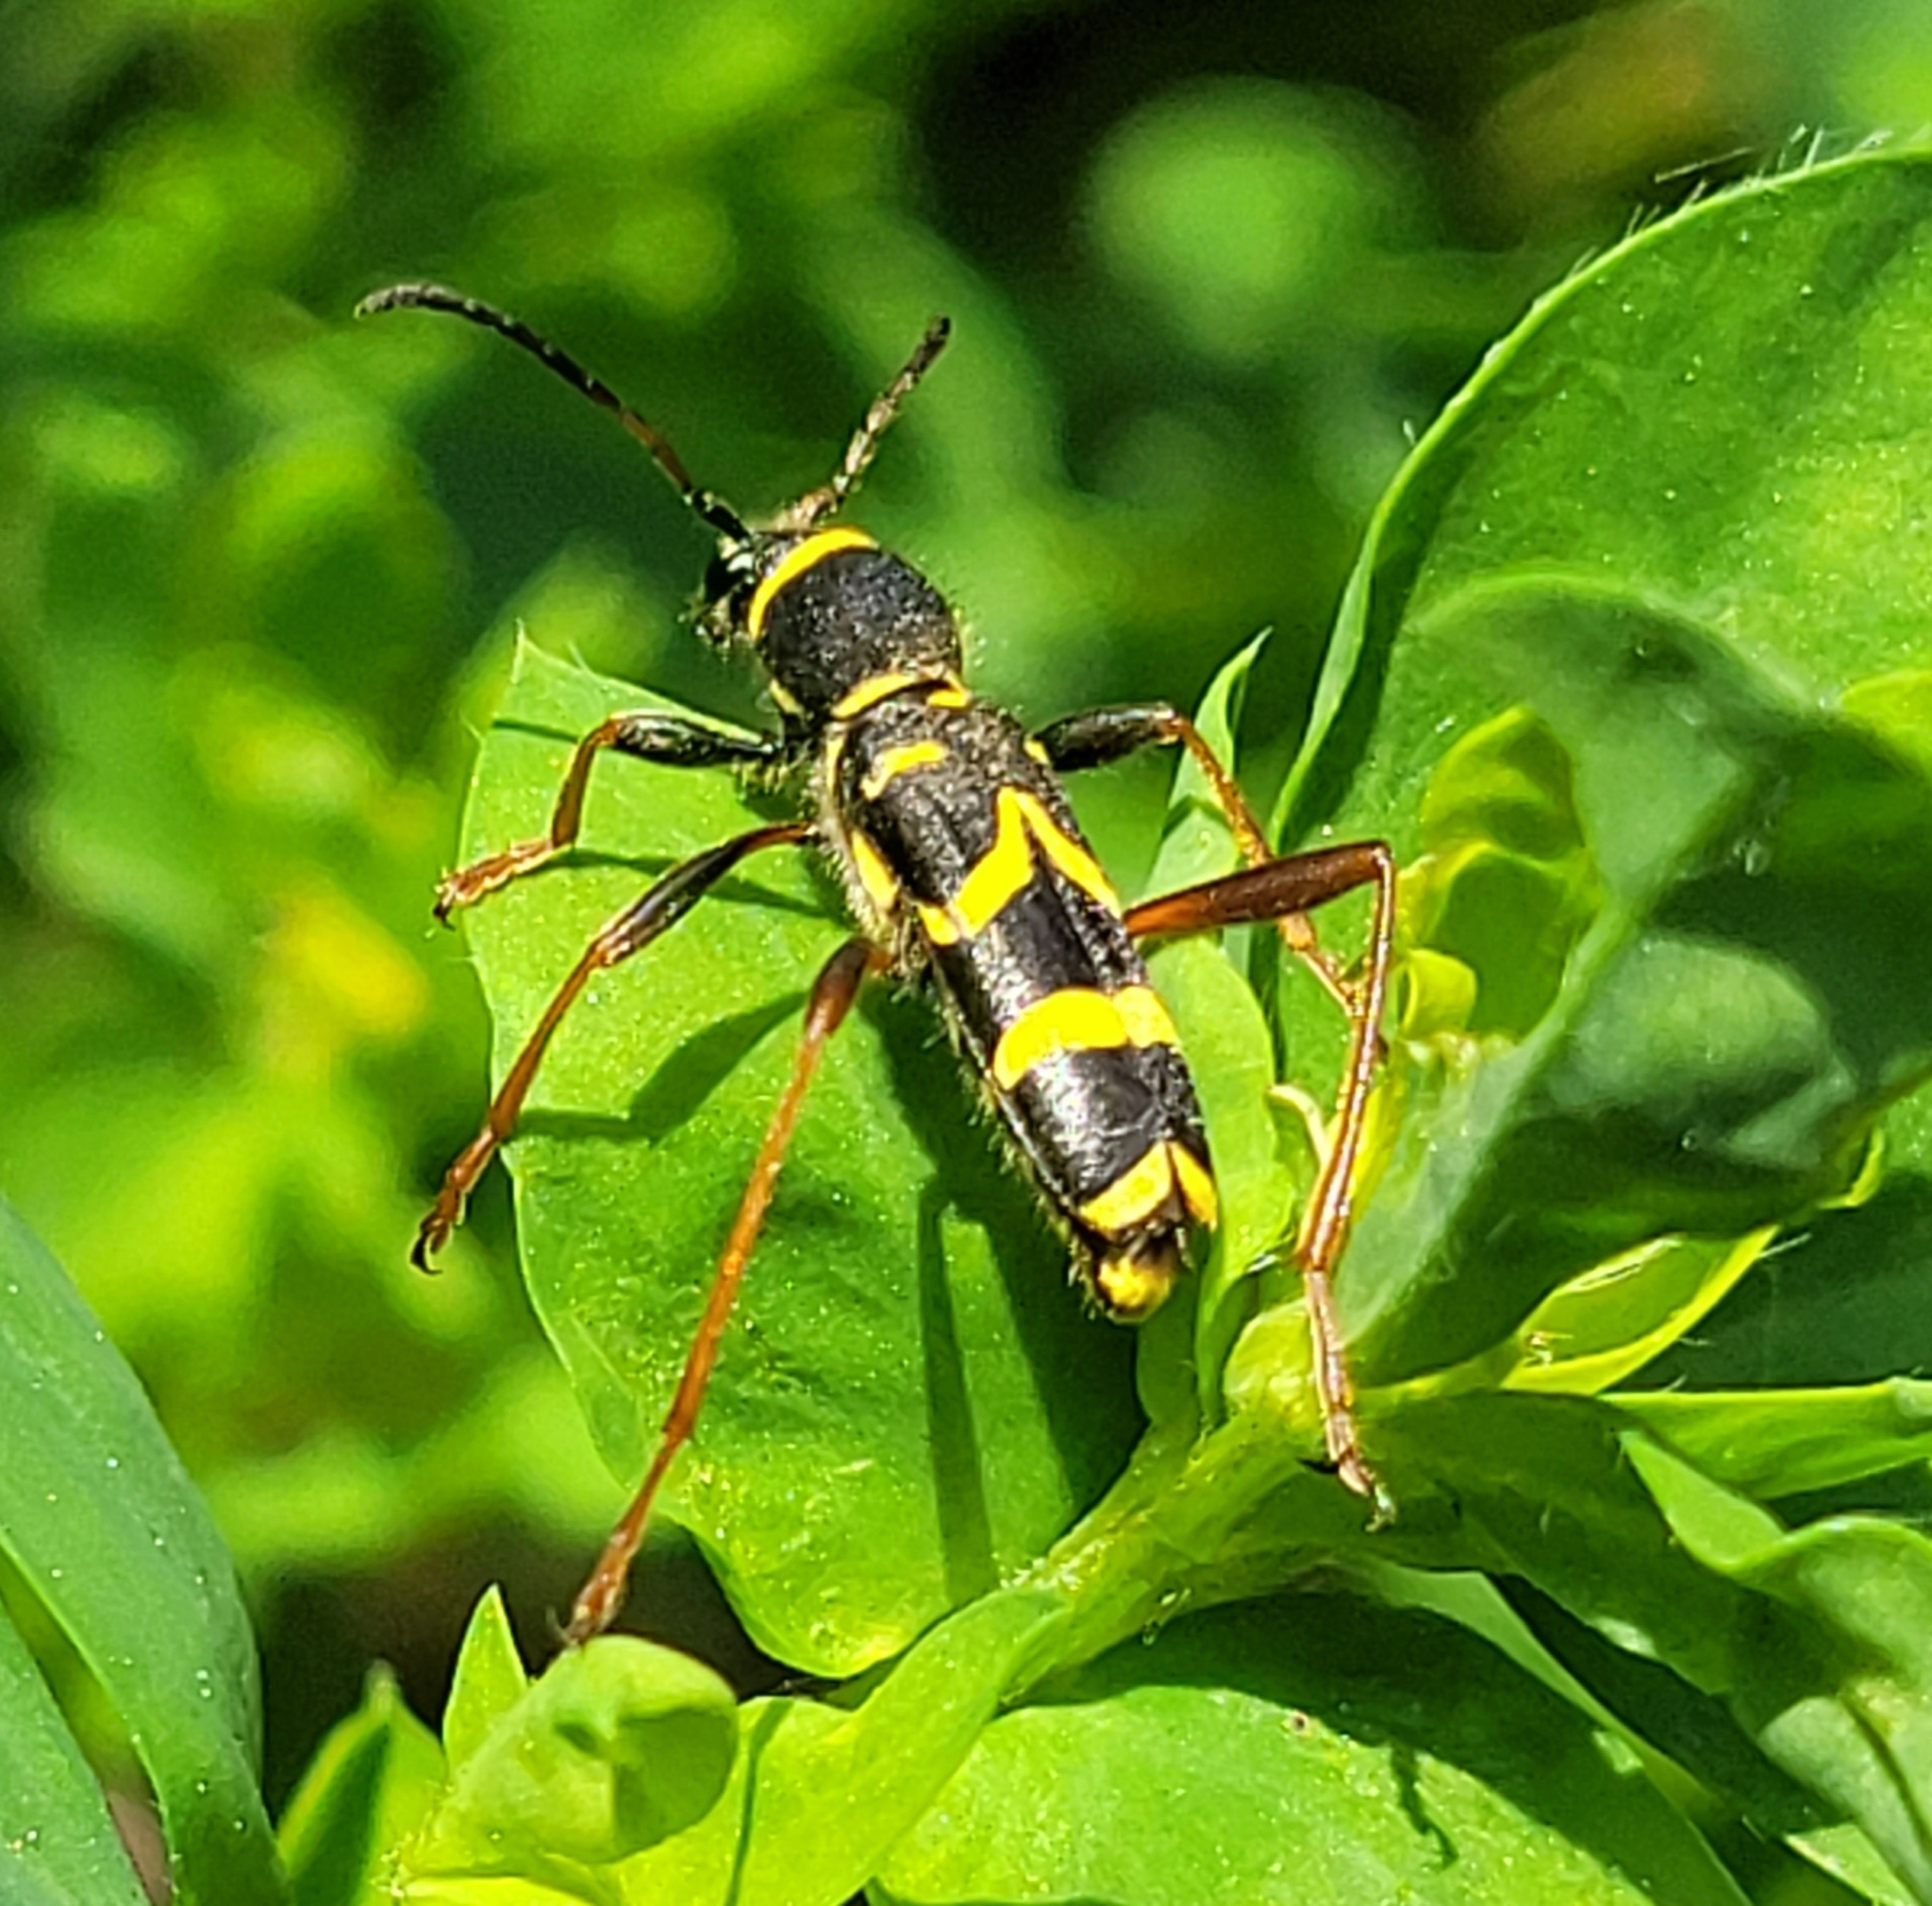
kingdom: Animalia
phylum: Arthropoda
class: Insecta
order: Coleoptera
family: Cerambycidae
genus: Clytus
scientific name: Clytus arietis
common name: Wasp beetle
